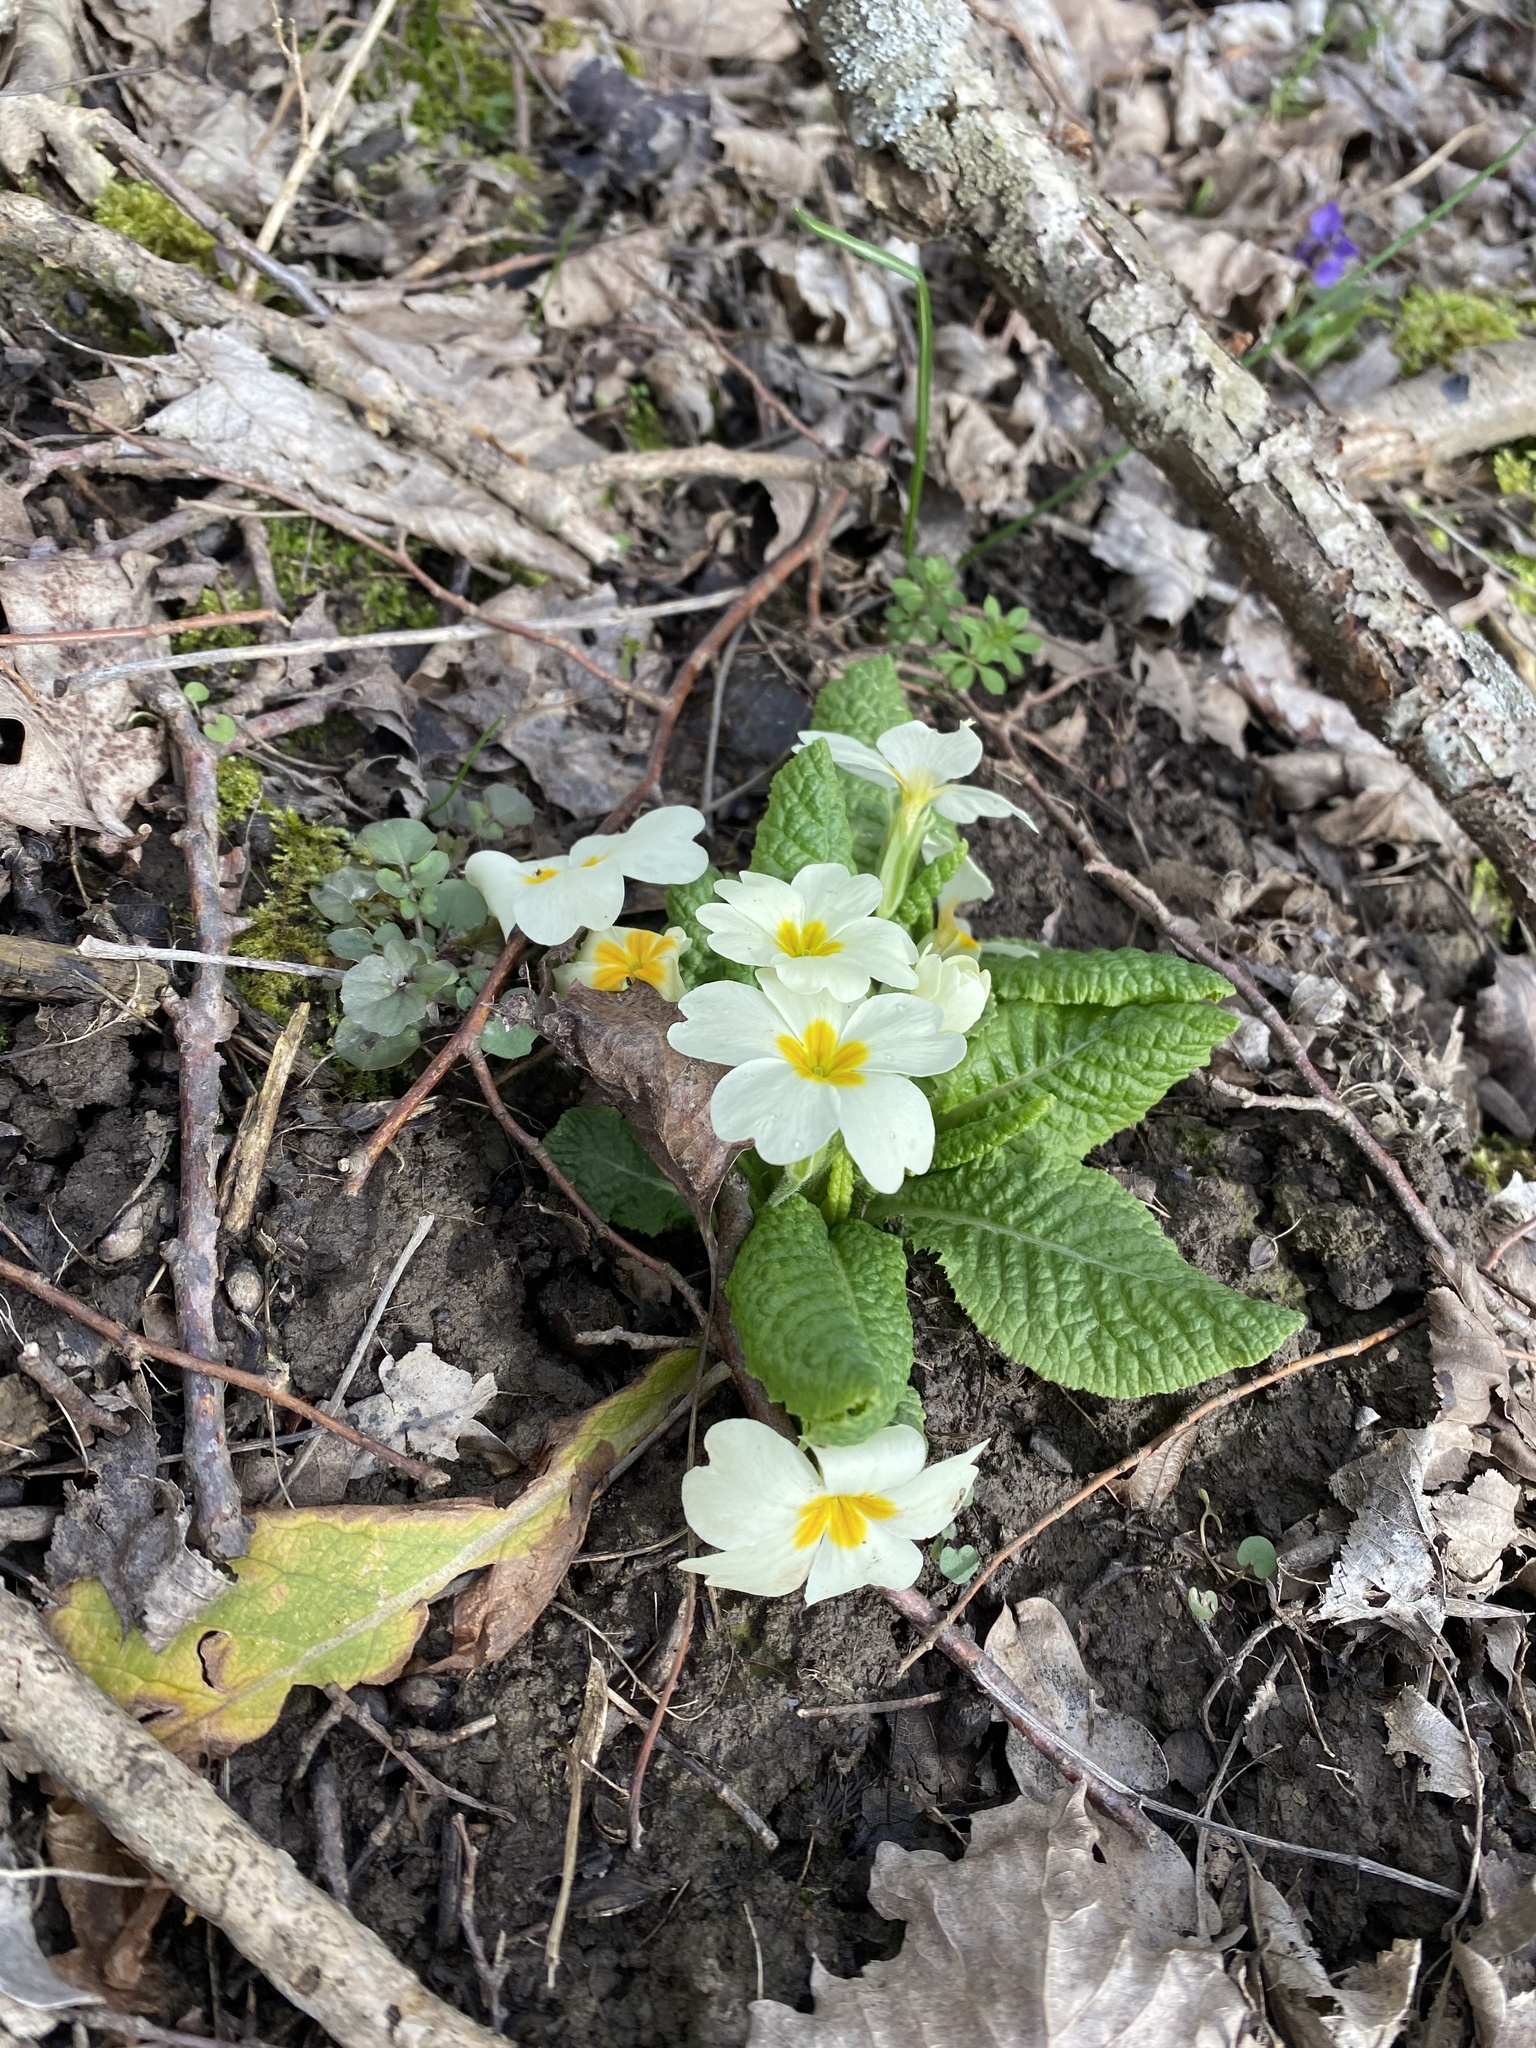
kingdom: Plantae
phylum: Tracheophyta
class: Magnoliopsida
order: Ericales
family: Primulaceae
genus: Primula
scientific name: Primula vulgaris
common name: Primrose
